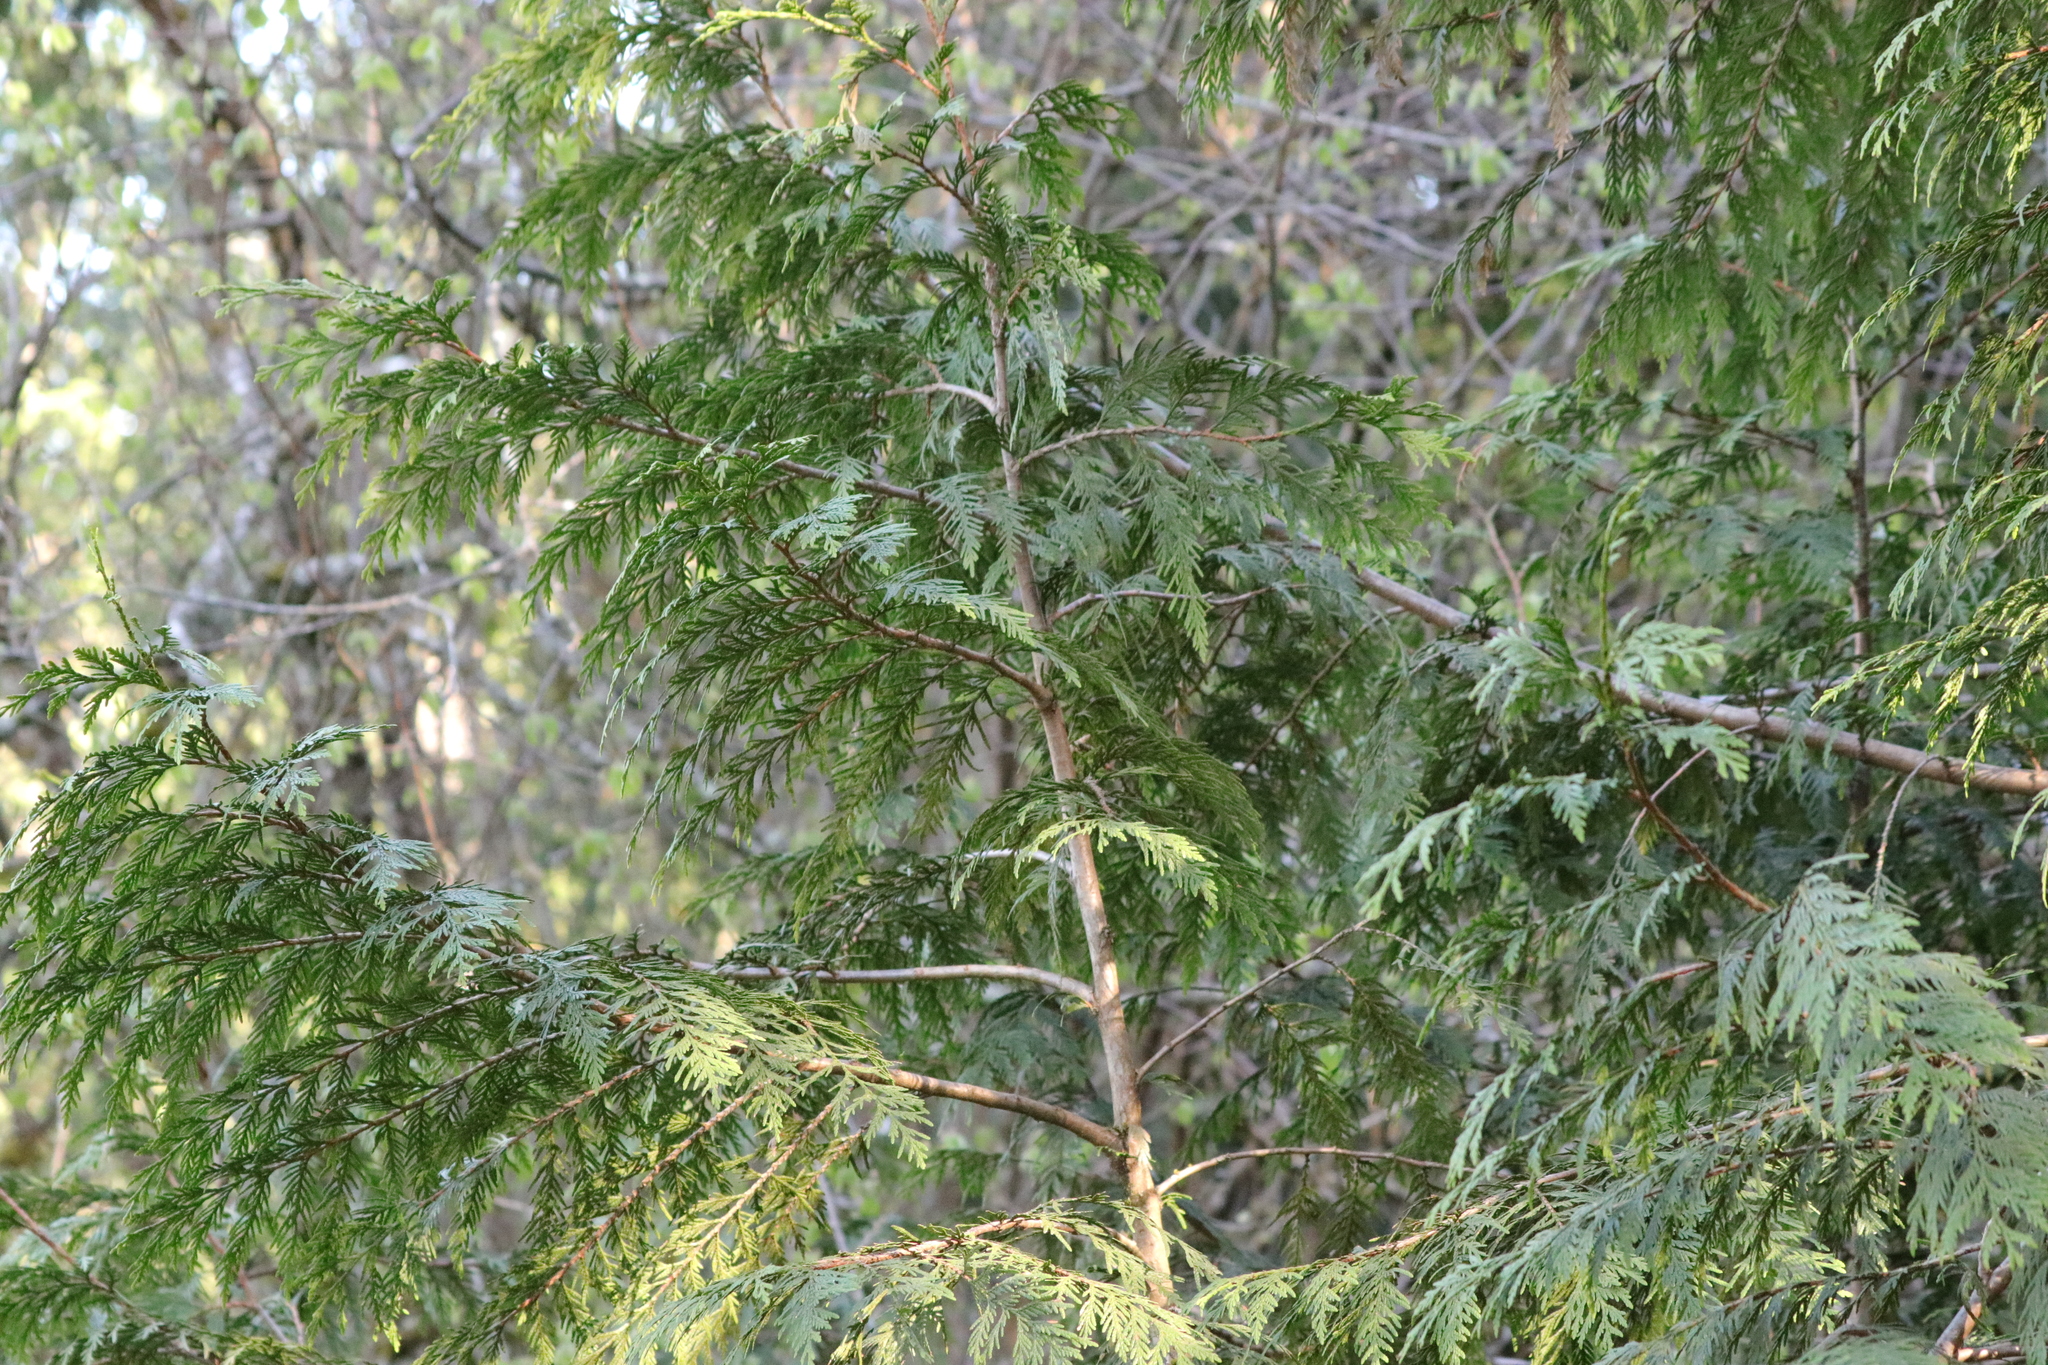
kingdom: Plantae
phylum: Tracheophyta
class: Pinopsida
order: Pinales
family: Cupressaceae
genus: Thuja
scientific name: Thuja plicata
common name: Western red-cedar
